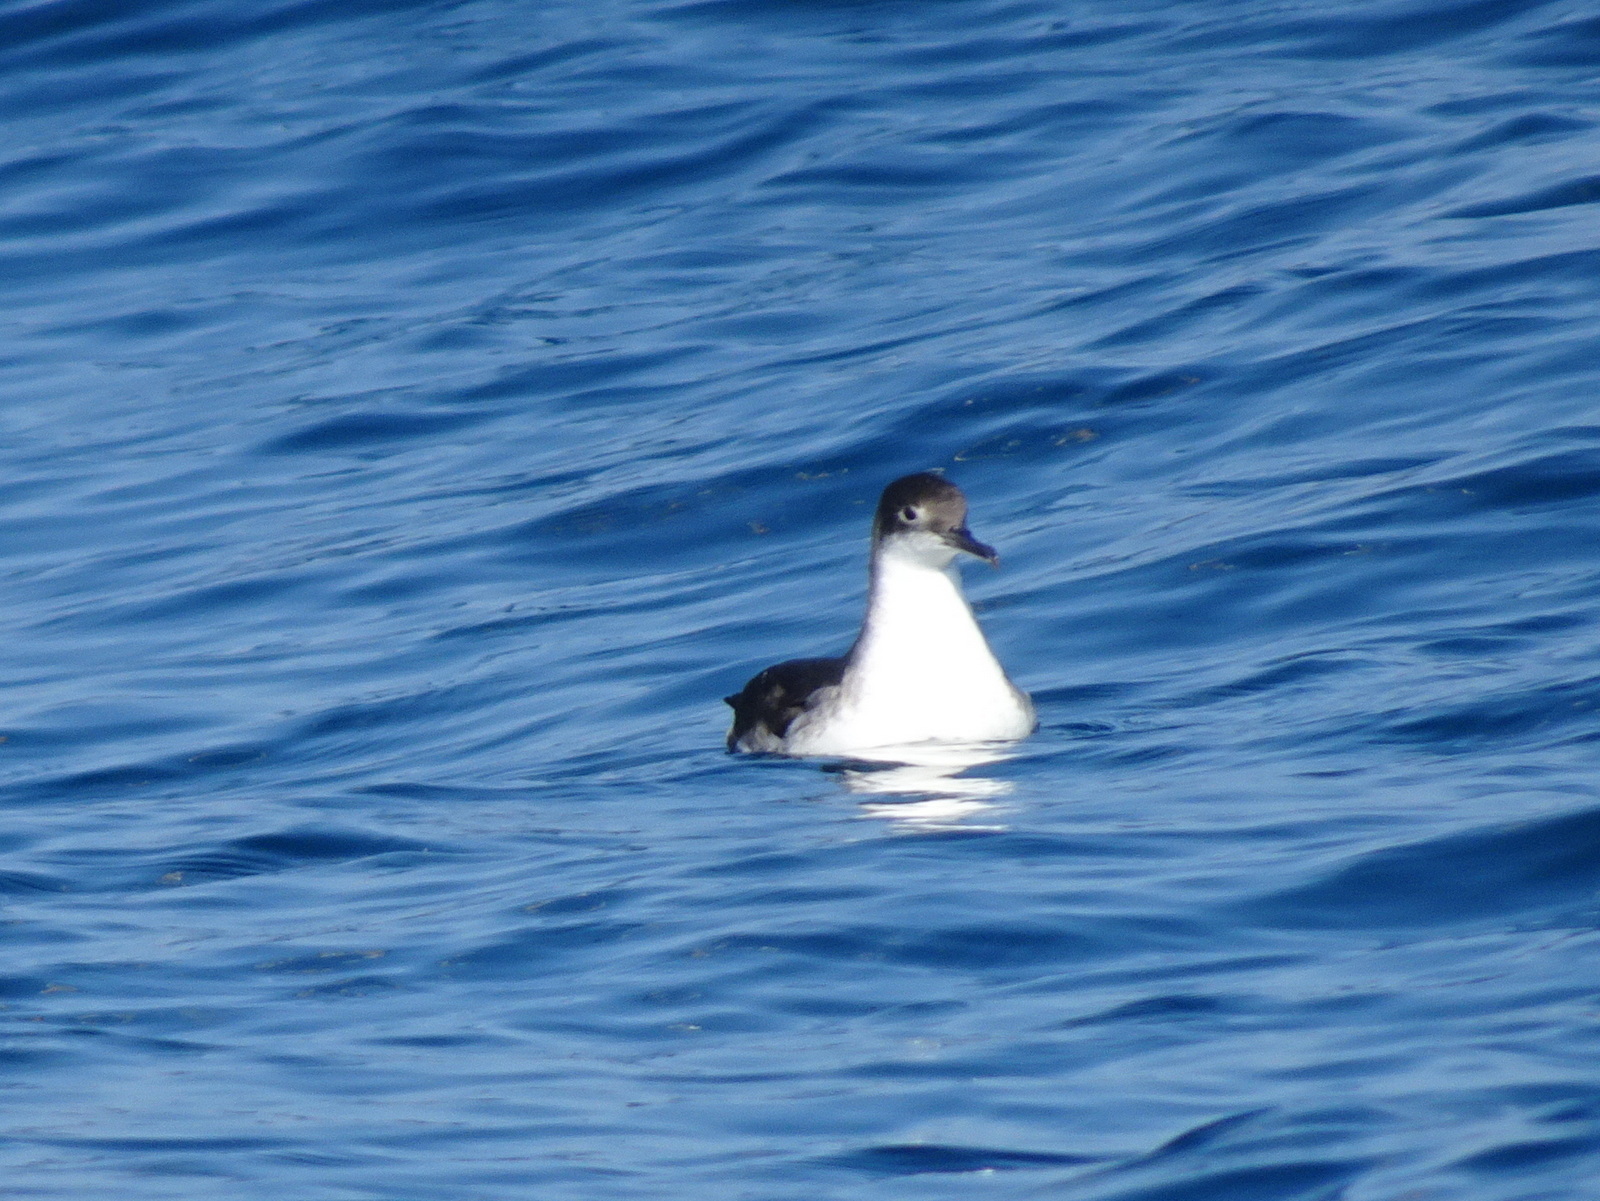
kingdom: Animalia
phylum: Chordata
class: Aves
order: Procellariiformes
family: Procellariidae
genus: Puffinus
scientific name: Puffinus yelkouan
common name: Yelkouan shearwater
